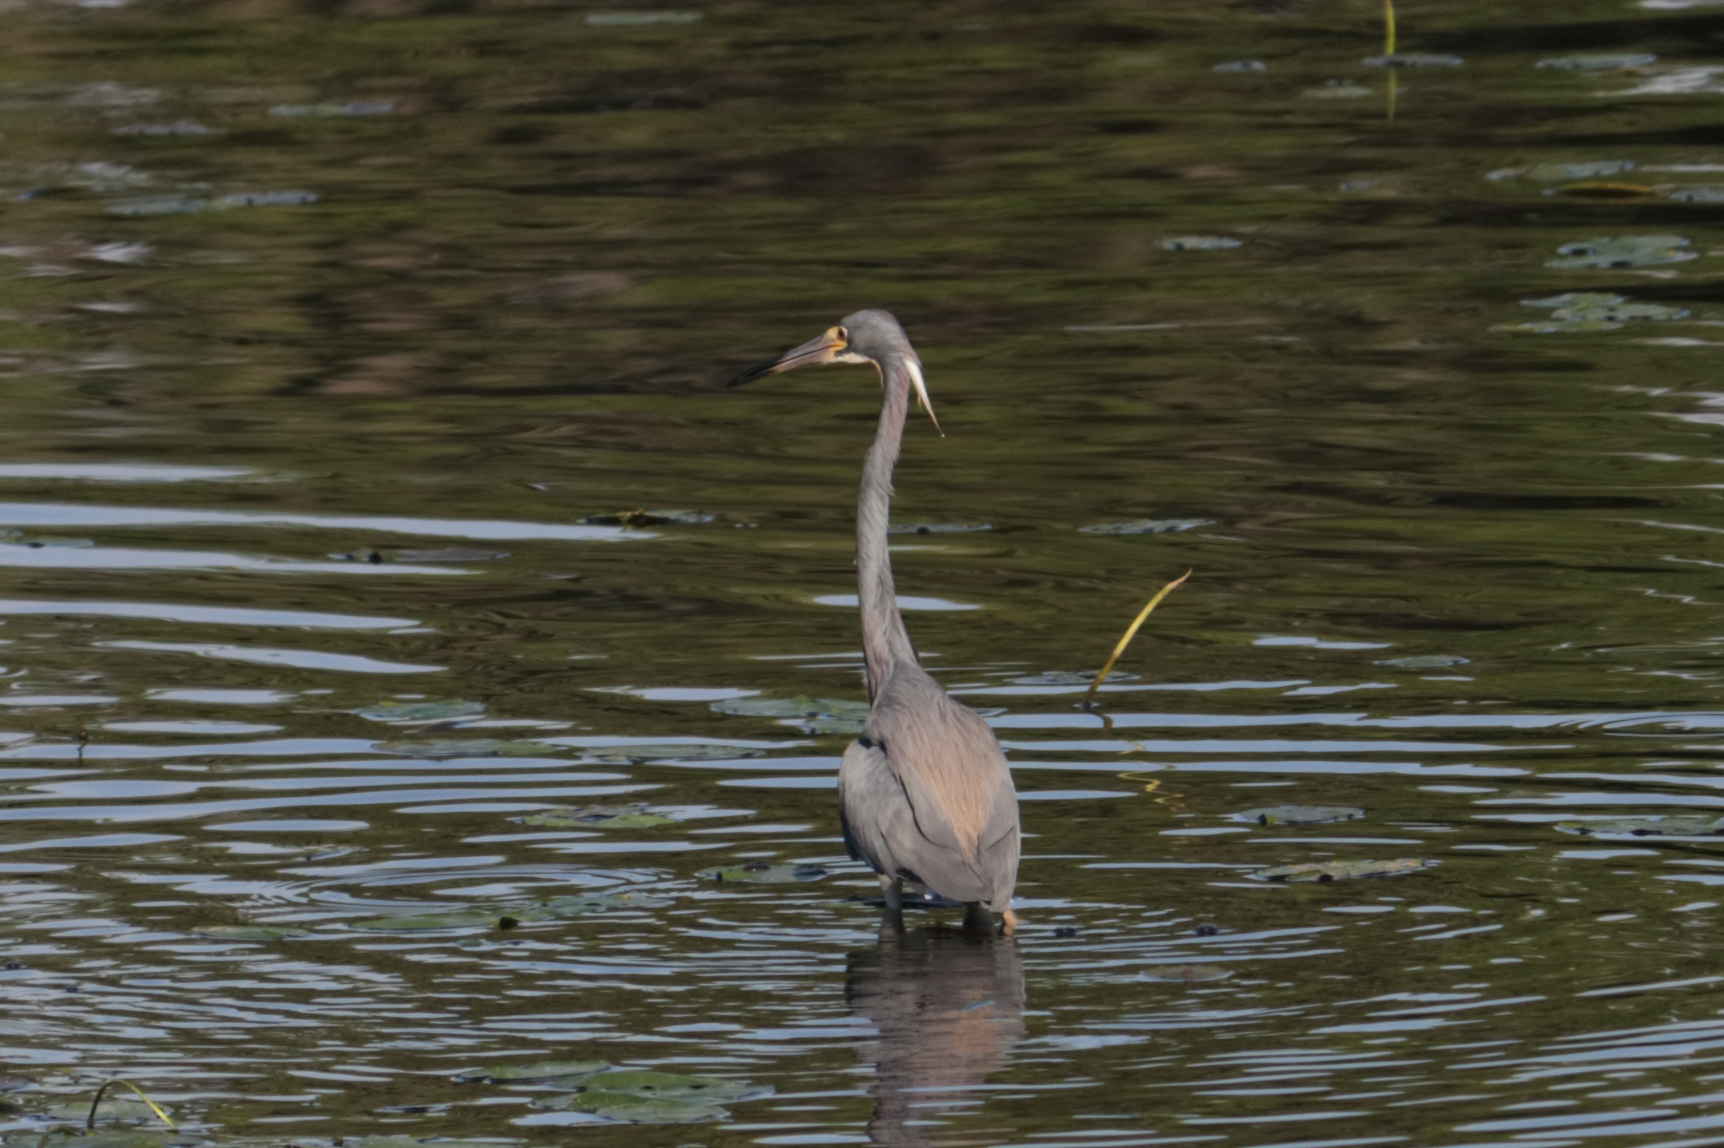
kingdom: Animalia
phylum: Chordata
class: Aves
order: Pelecaniformes
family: Ardeidae
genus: Egretta
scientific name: Egretta tricolor
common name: Tricolored heron
